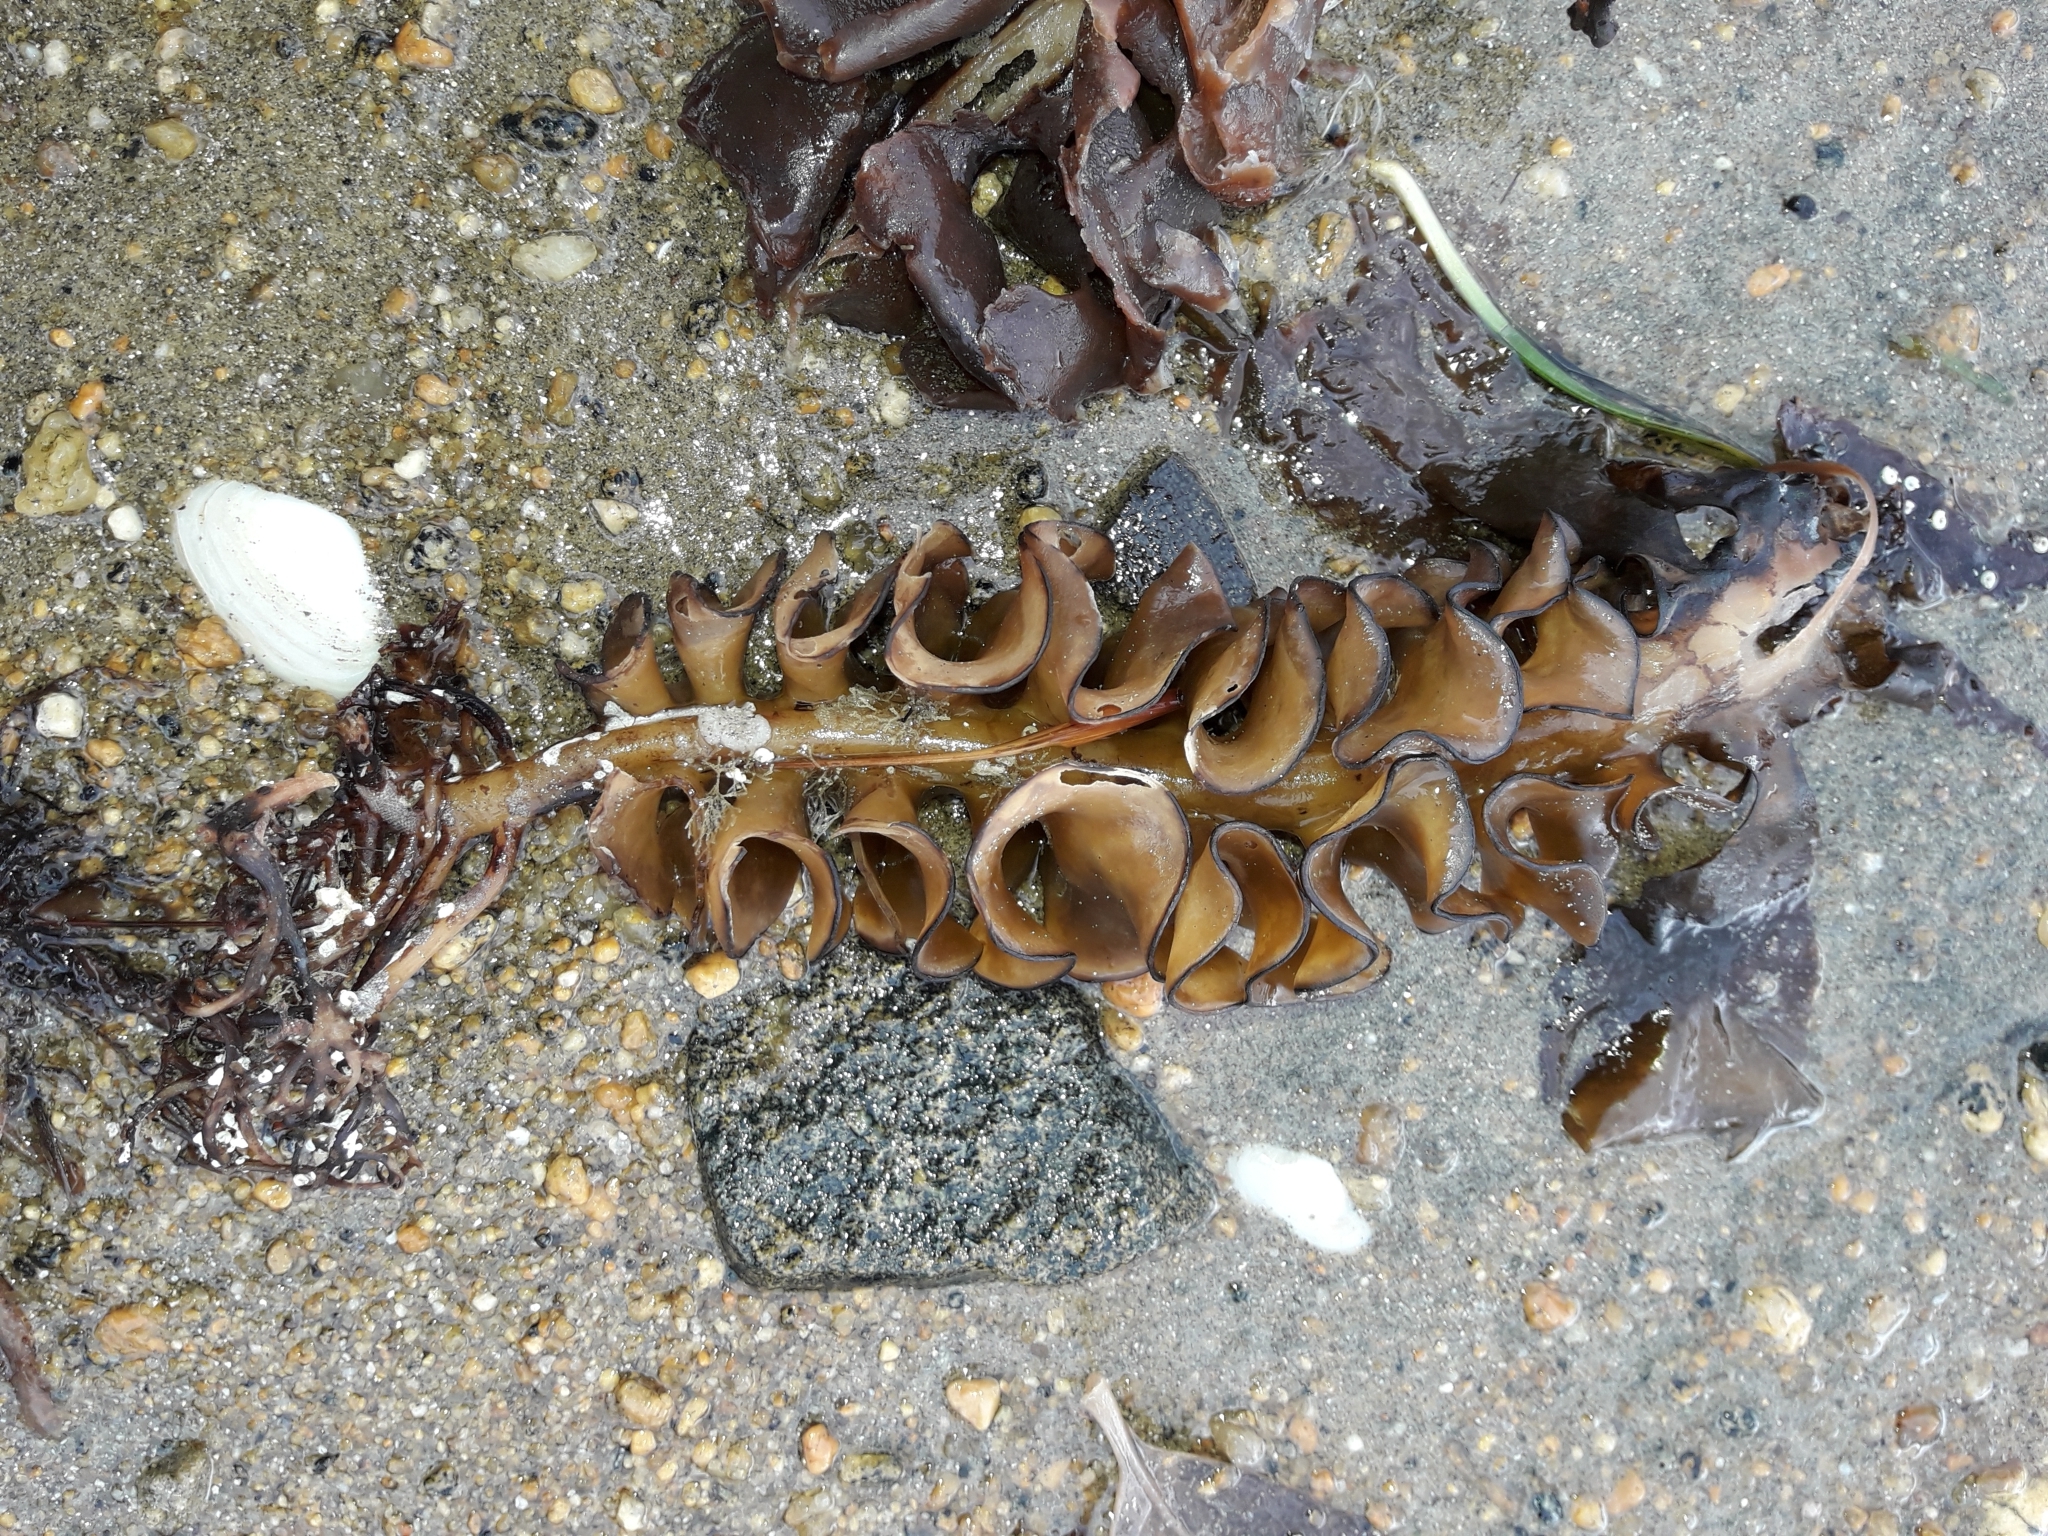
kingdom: Chromista
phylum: Ochrophyta
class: Phaeophyceae
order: Laminariales
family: Alariaceae
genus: Undaria
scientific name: Undaria pinnatifida
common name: Asian kelp
